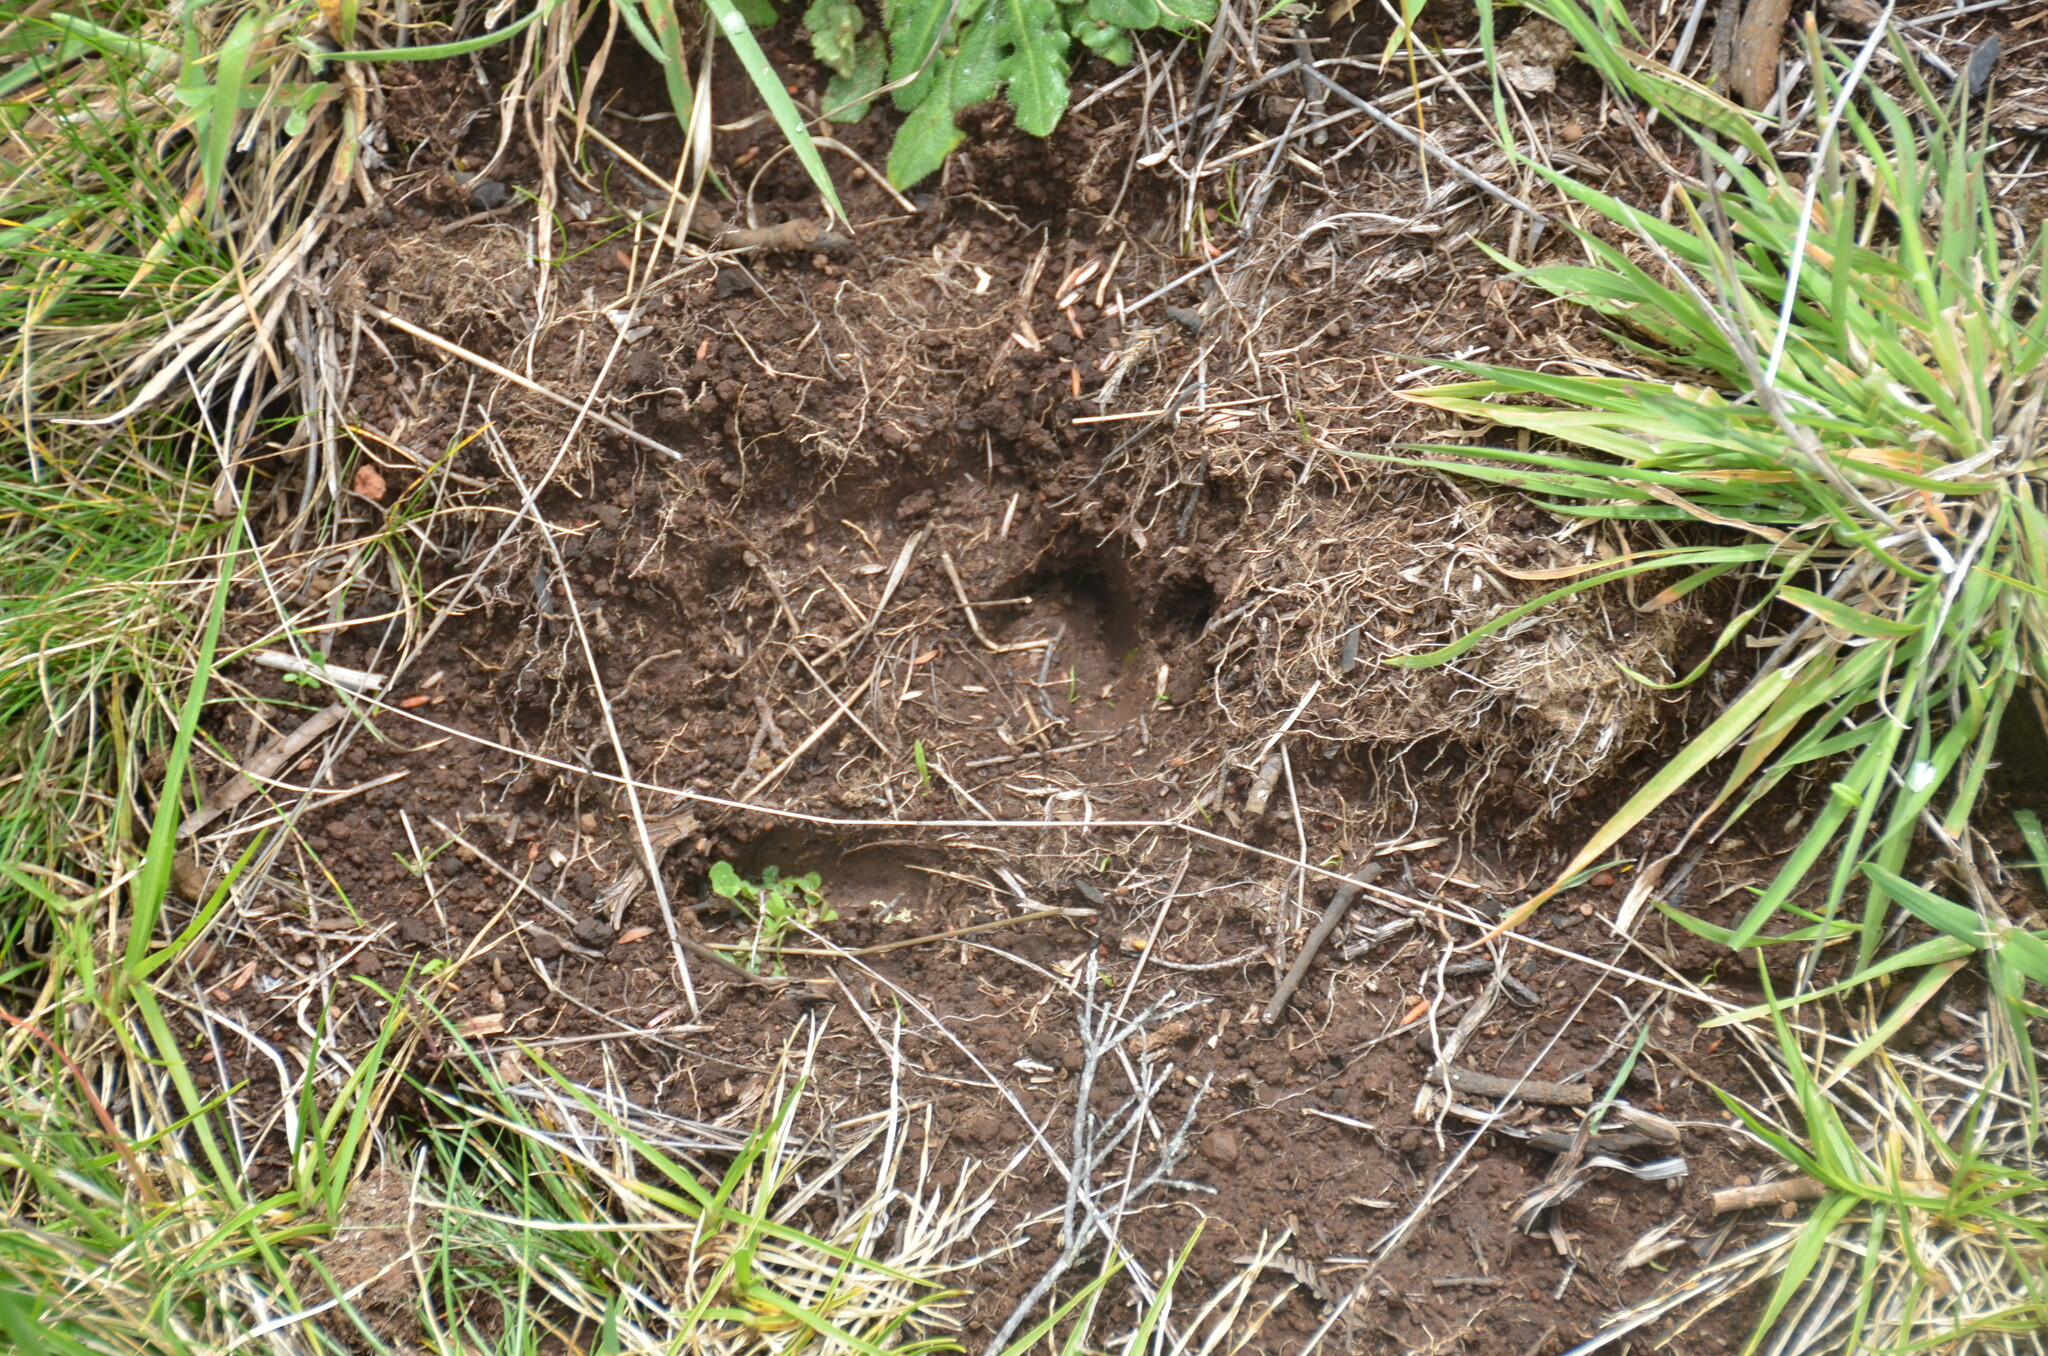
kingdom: Animalia
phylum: Chordata
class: Mammalia
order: Artiodactyla
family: Bovidae
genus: Capra
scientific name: Capra hircus
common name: Domestic goat
